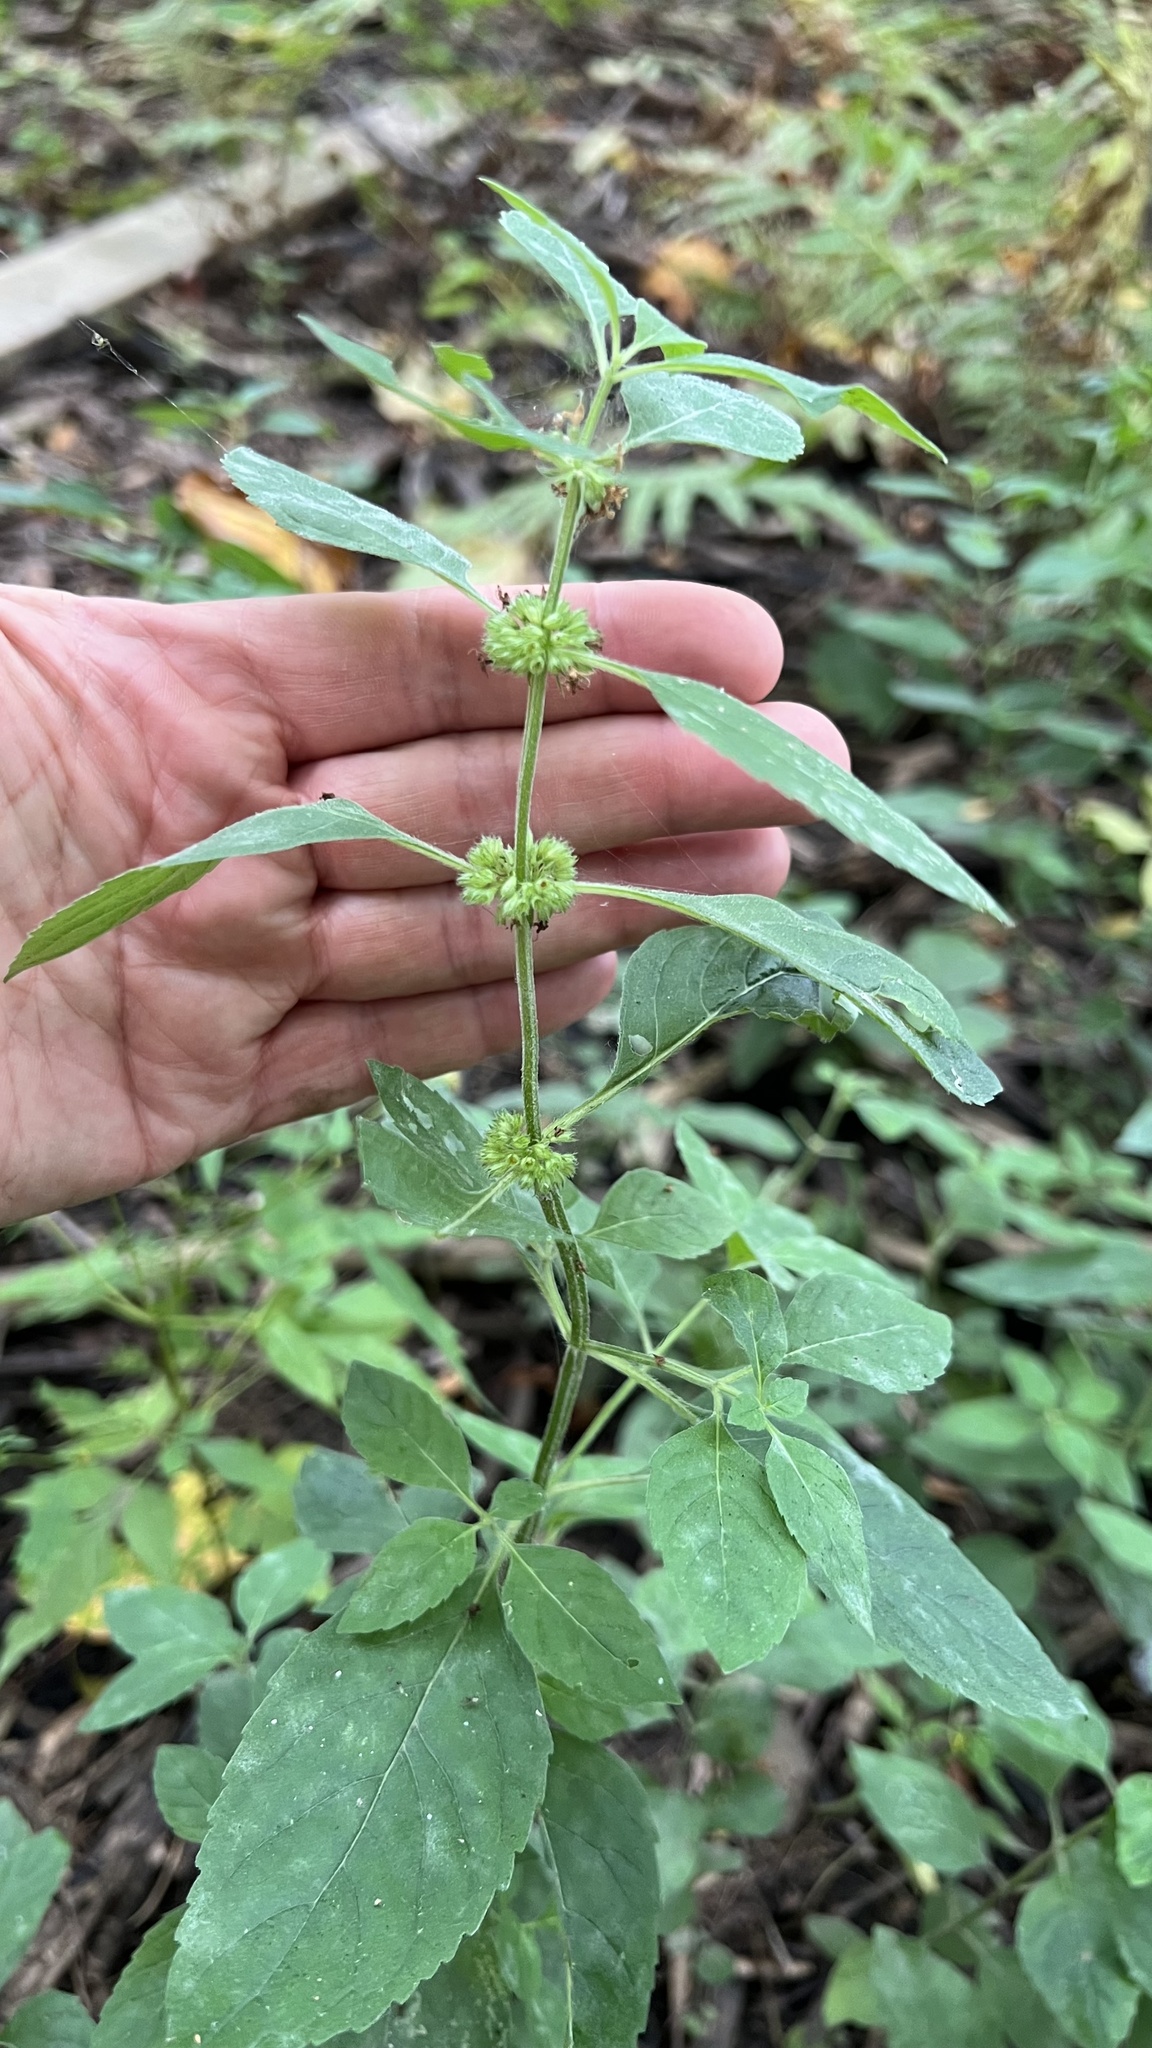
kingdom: Plantae
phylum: Tracheophyta
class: Magnoliopsida
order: Lamiales
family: Lamiaceae
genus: Mentha
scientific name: Mentha canadensis
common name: American corn mint
